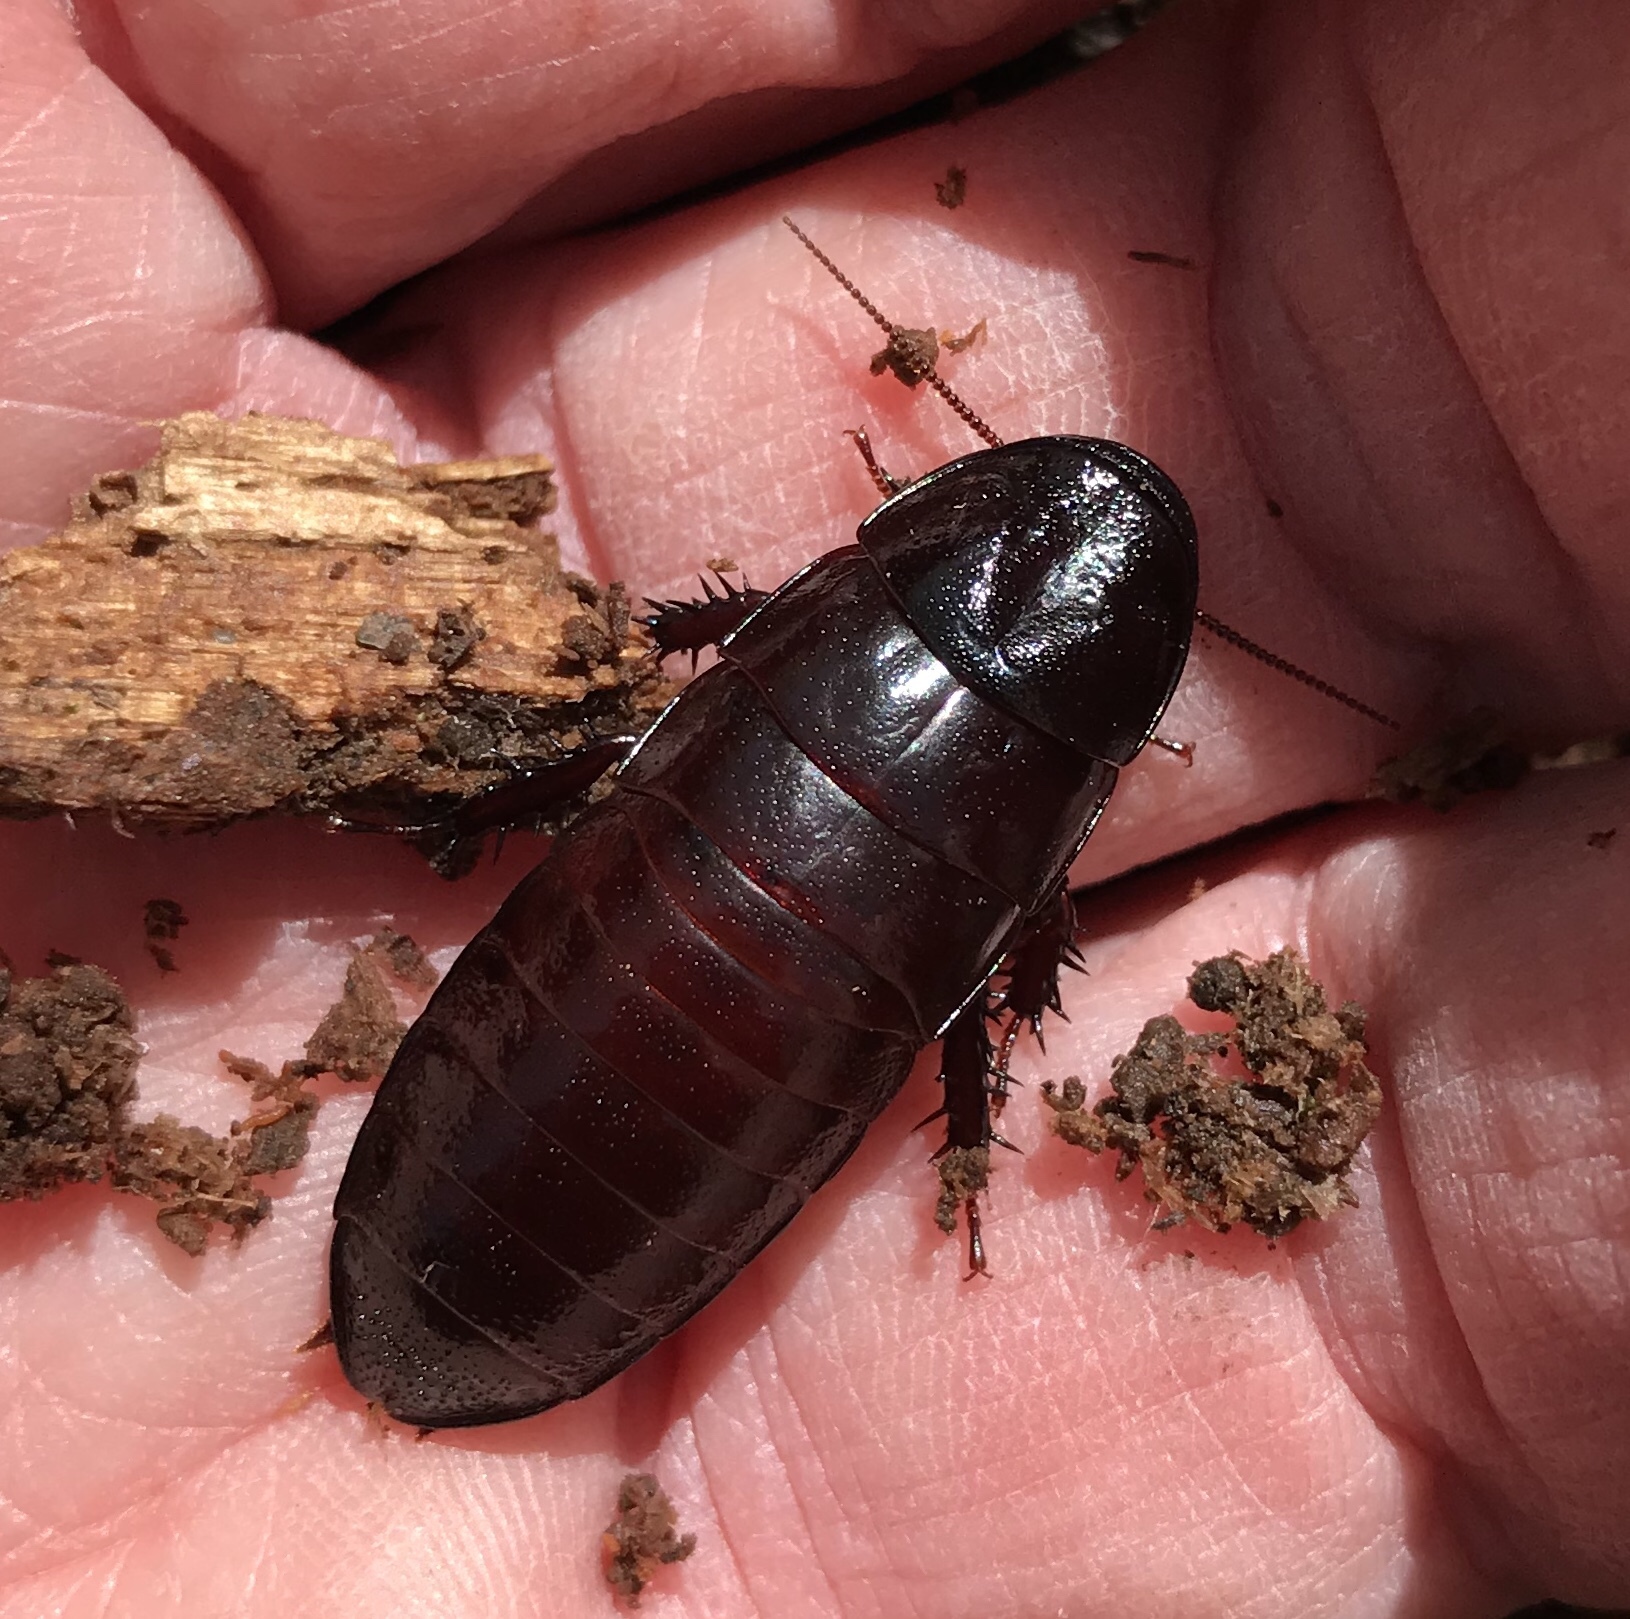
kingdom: Animalia
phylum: Arthropoda
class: Insecta
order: Blattodea
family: Cryptocercidae
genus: Cryptocercus
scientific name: Cryptocercus punctulatus
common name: Brown wingless cockroach
